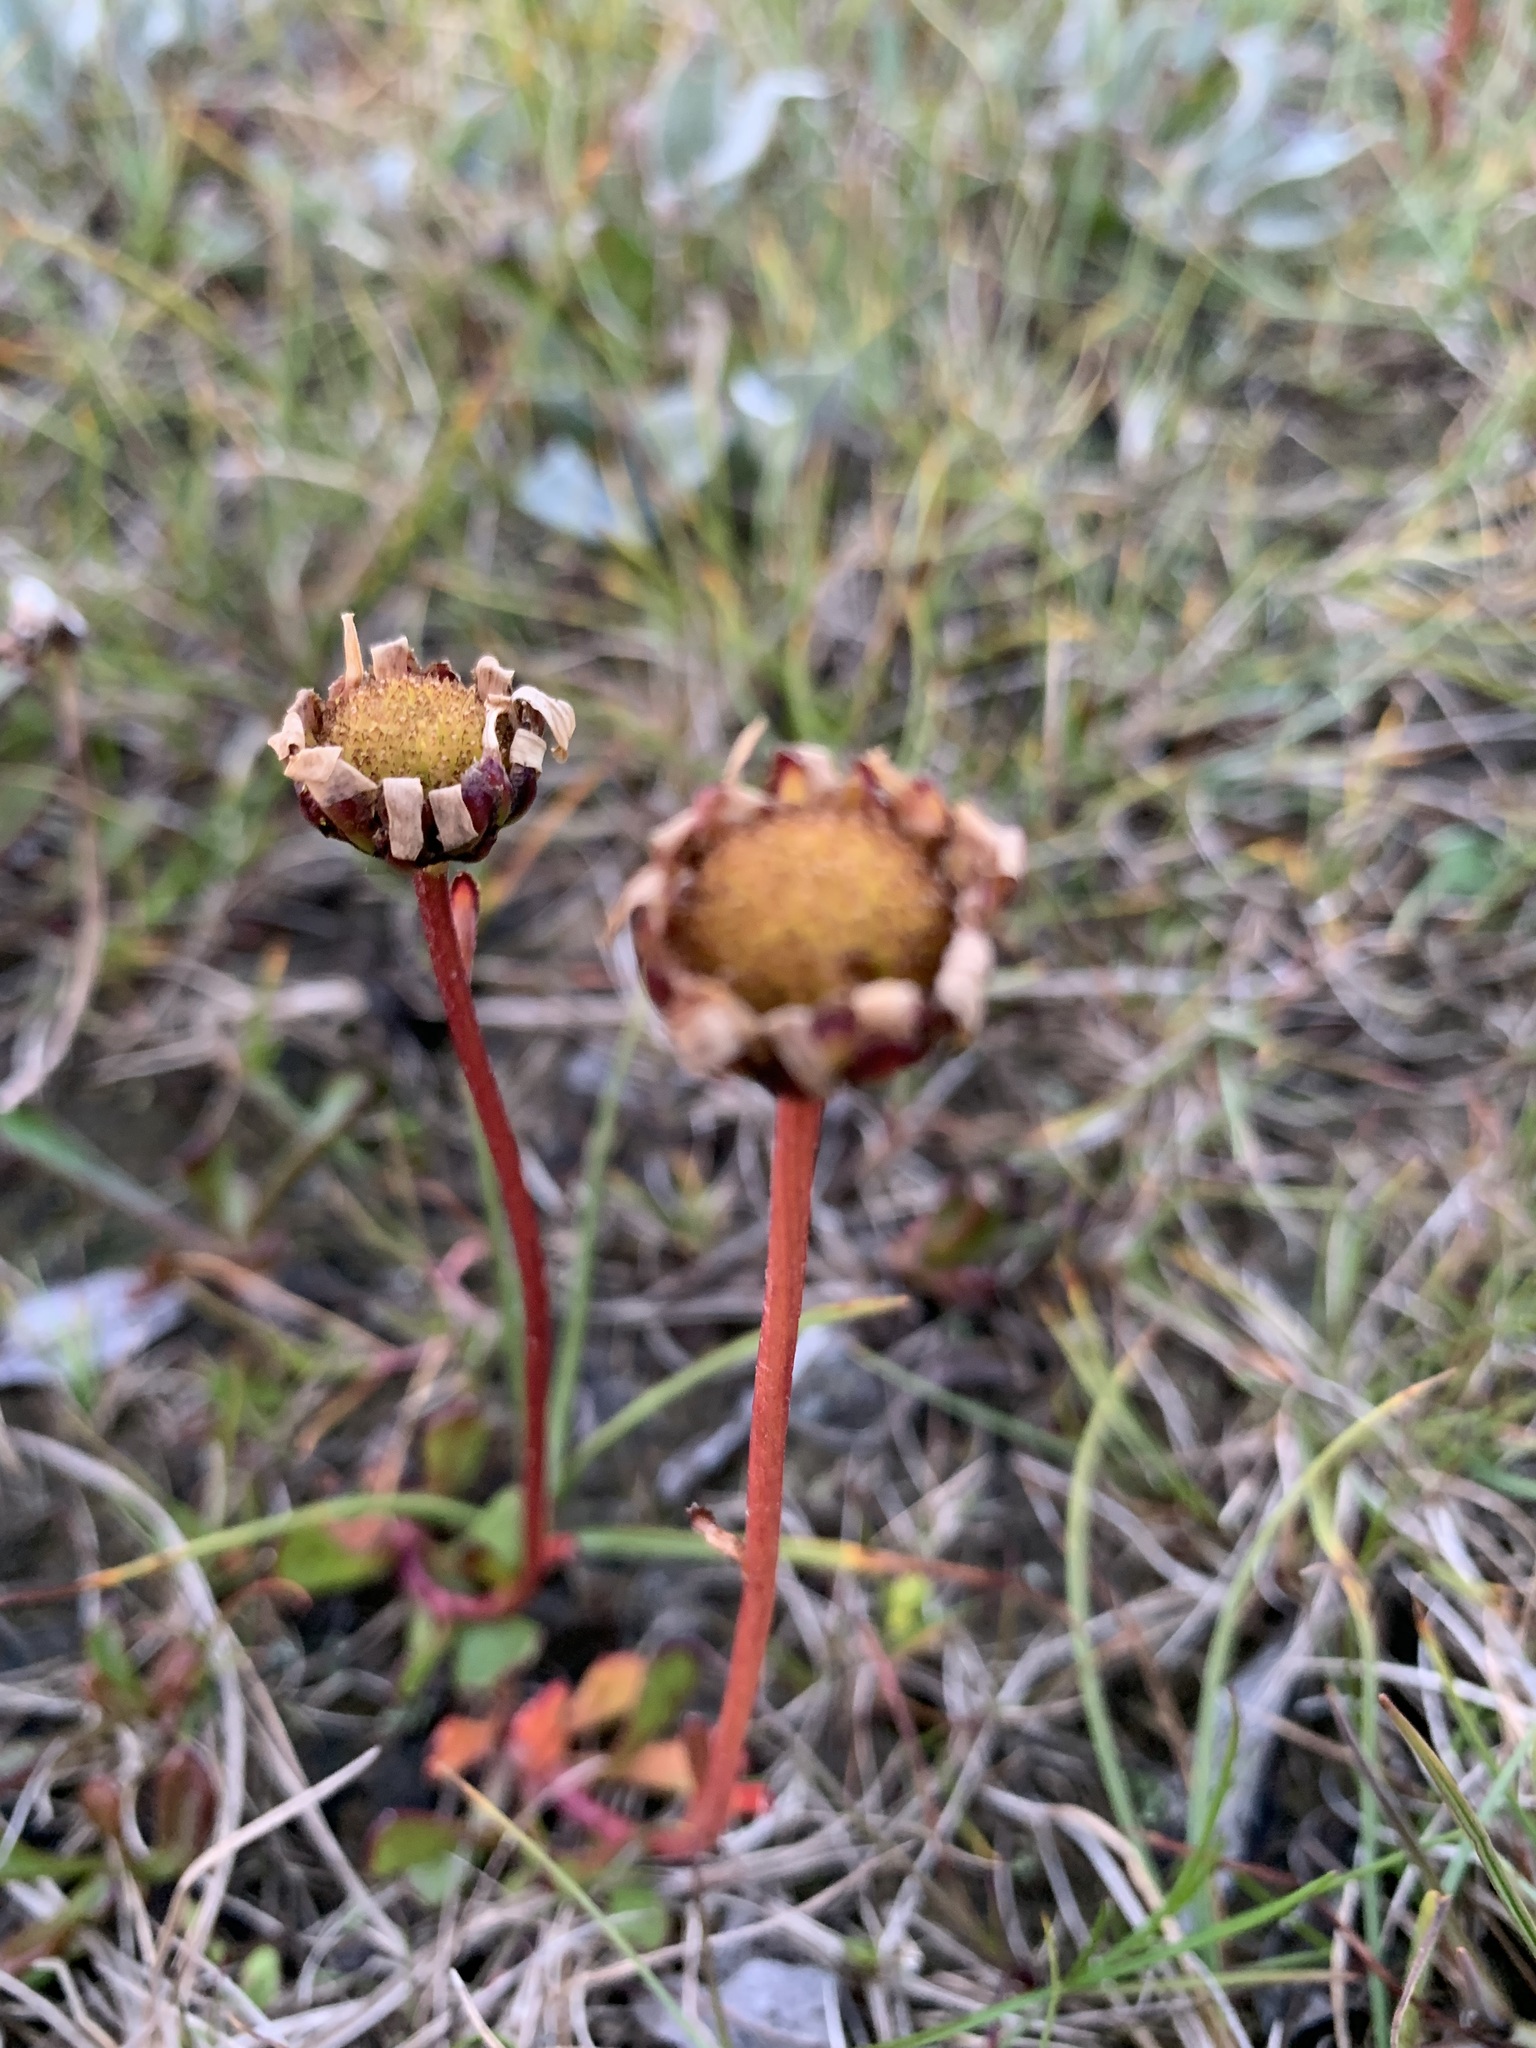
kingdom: Plantae
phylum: Tracheophyta
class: Magnoliopsida
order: Asterales
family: Asteraceae
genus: Arctanthemum
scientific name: Arctanthemum arcticum
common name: Arctic daisy
